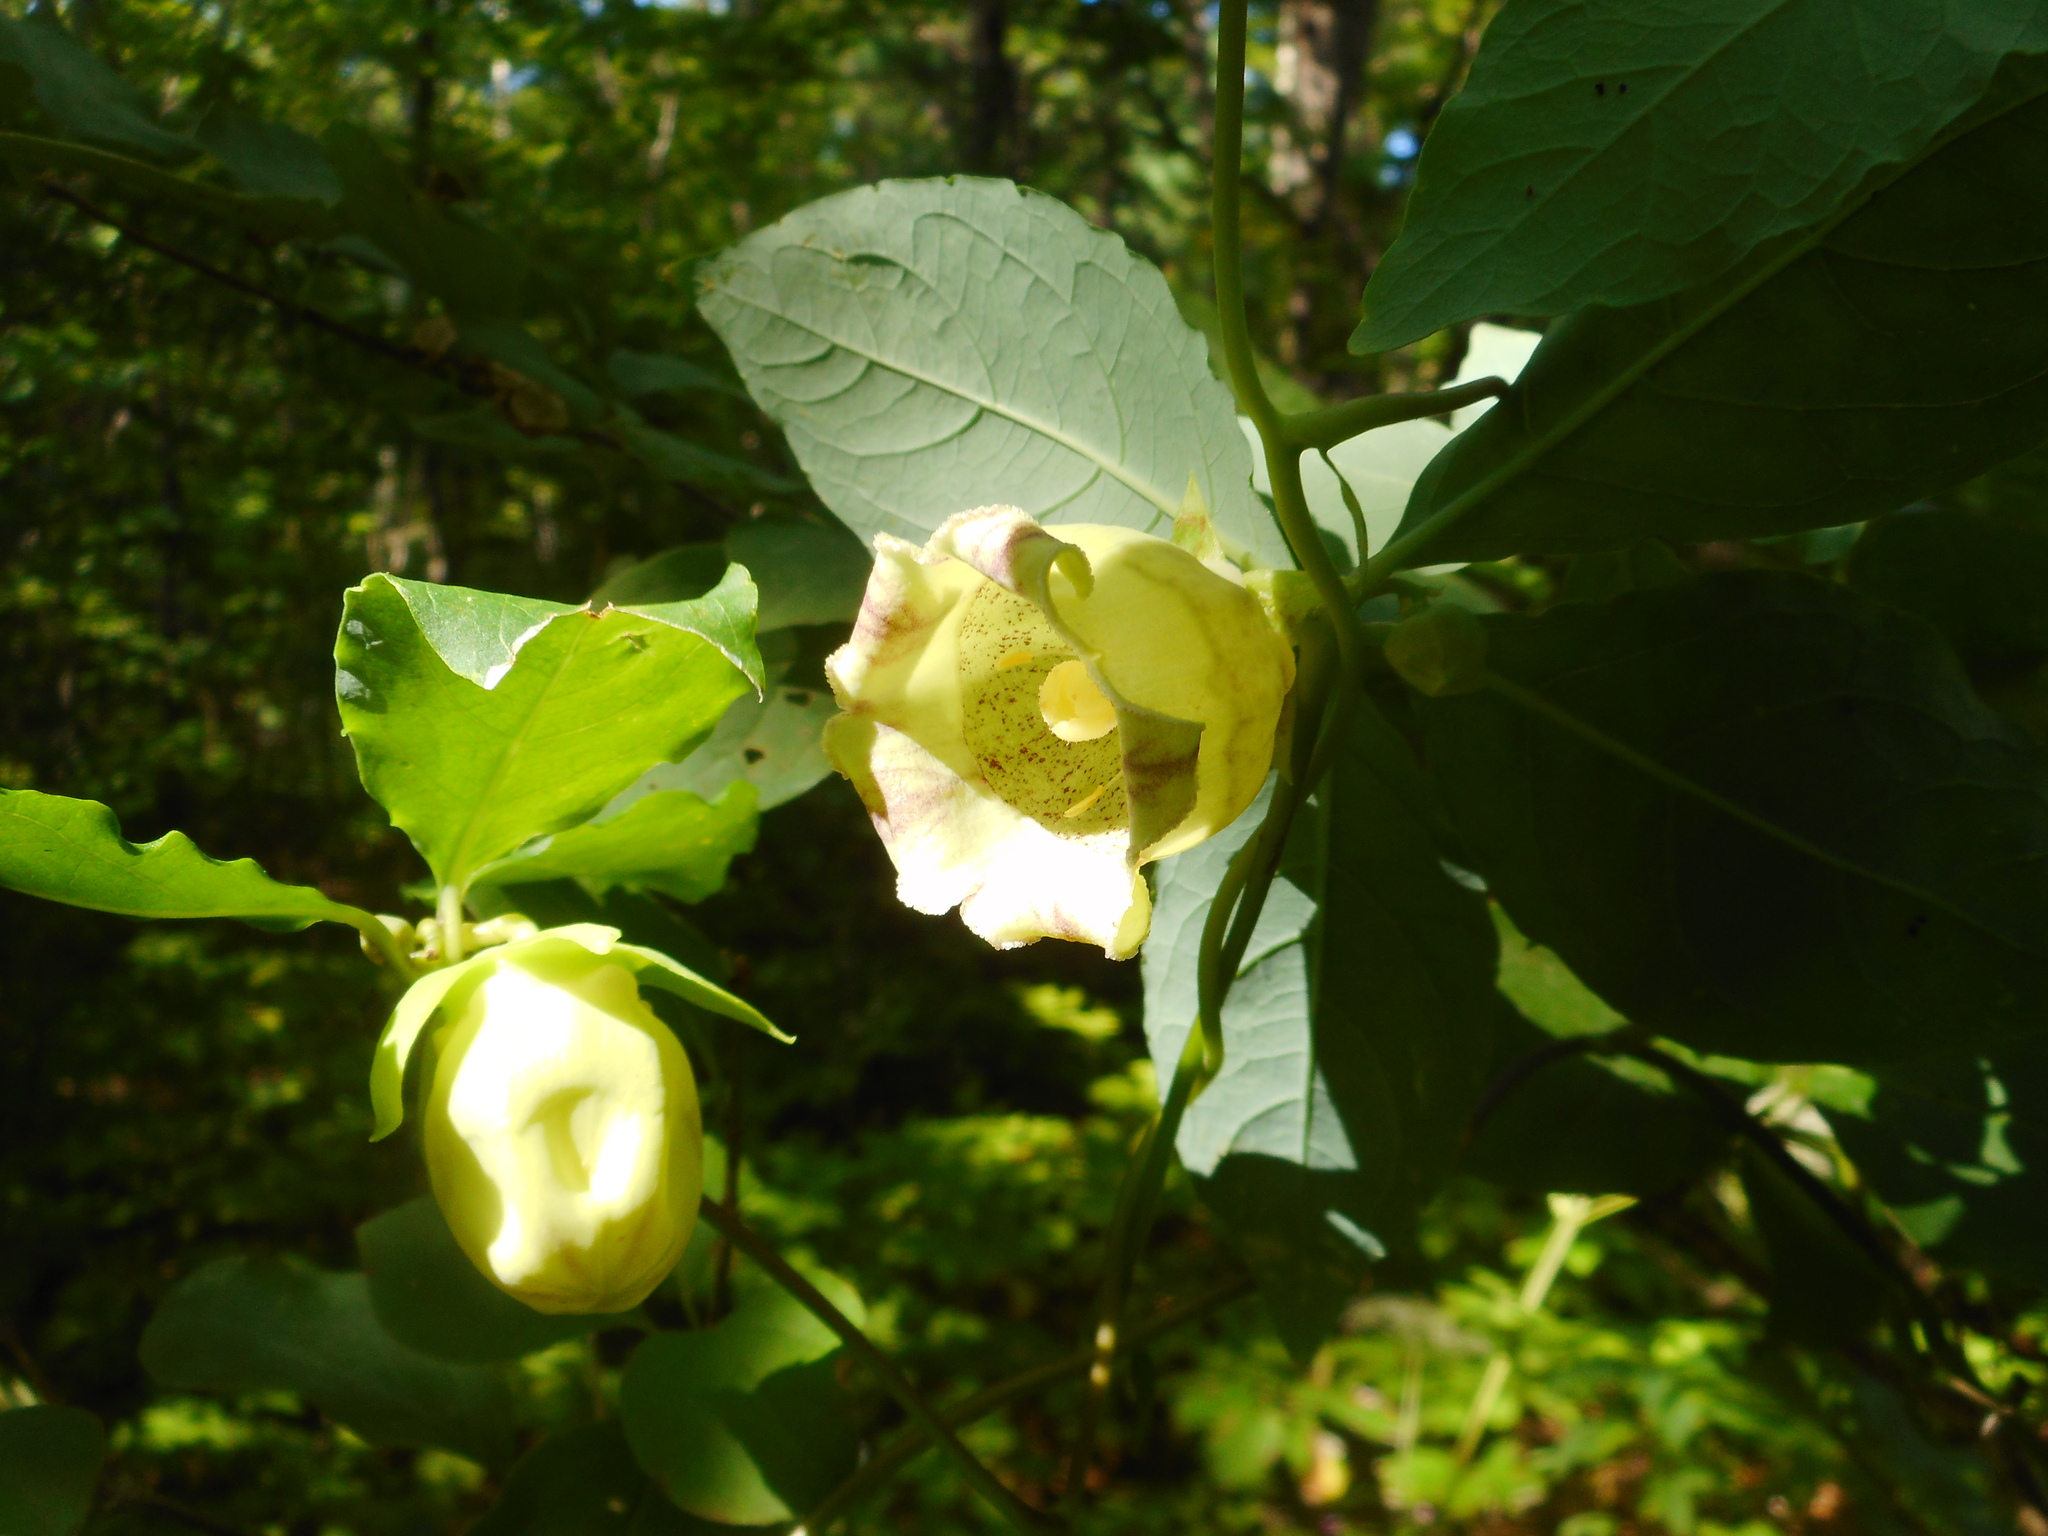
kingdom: Plantae
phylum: Tracheophyta
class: Magnoliopsida
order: Asterales
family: Campanulaceae
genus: Codonopsis
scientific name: Codonopsis lanceolata
